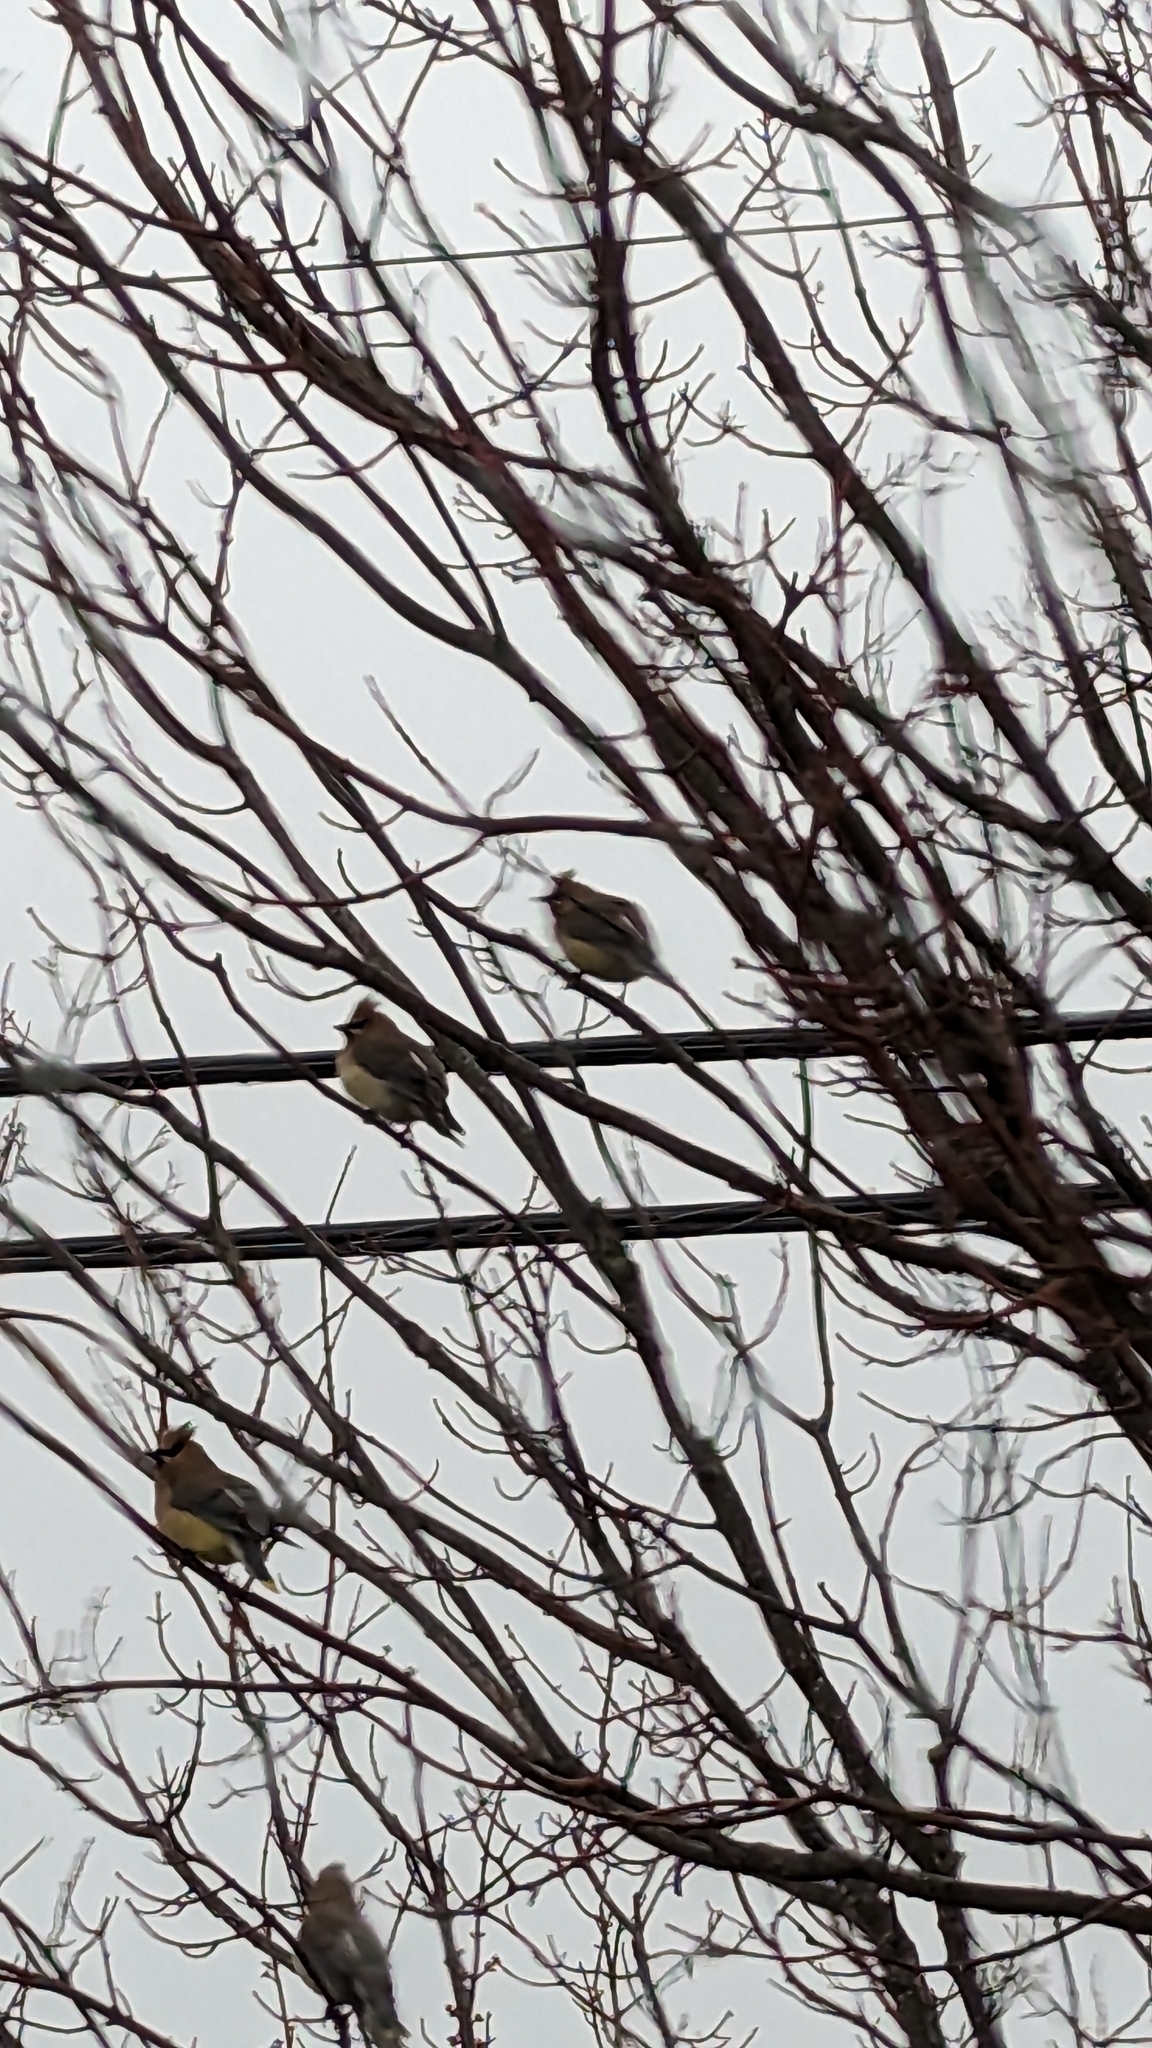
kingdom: Animalia
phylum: Chordata
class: Aves
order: Passeriformes
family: Bombycillidae
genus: Bombycilla
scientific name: Bombycilla cedrorum
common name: Cedar waxwing
